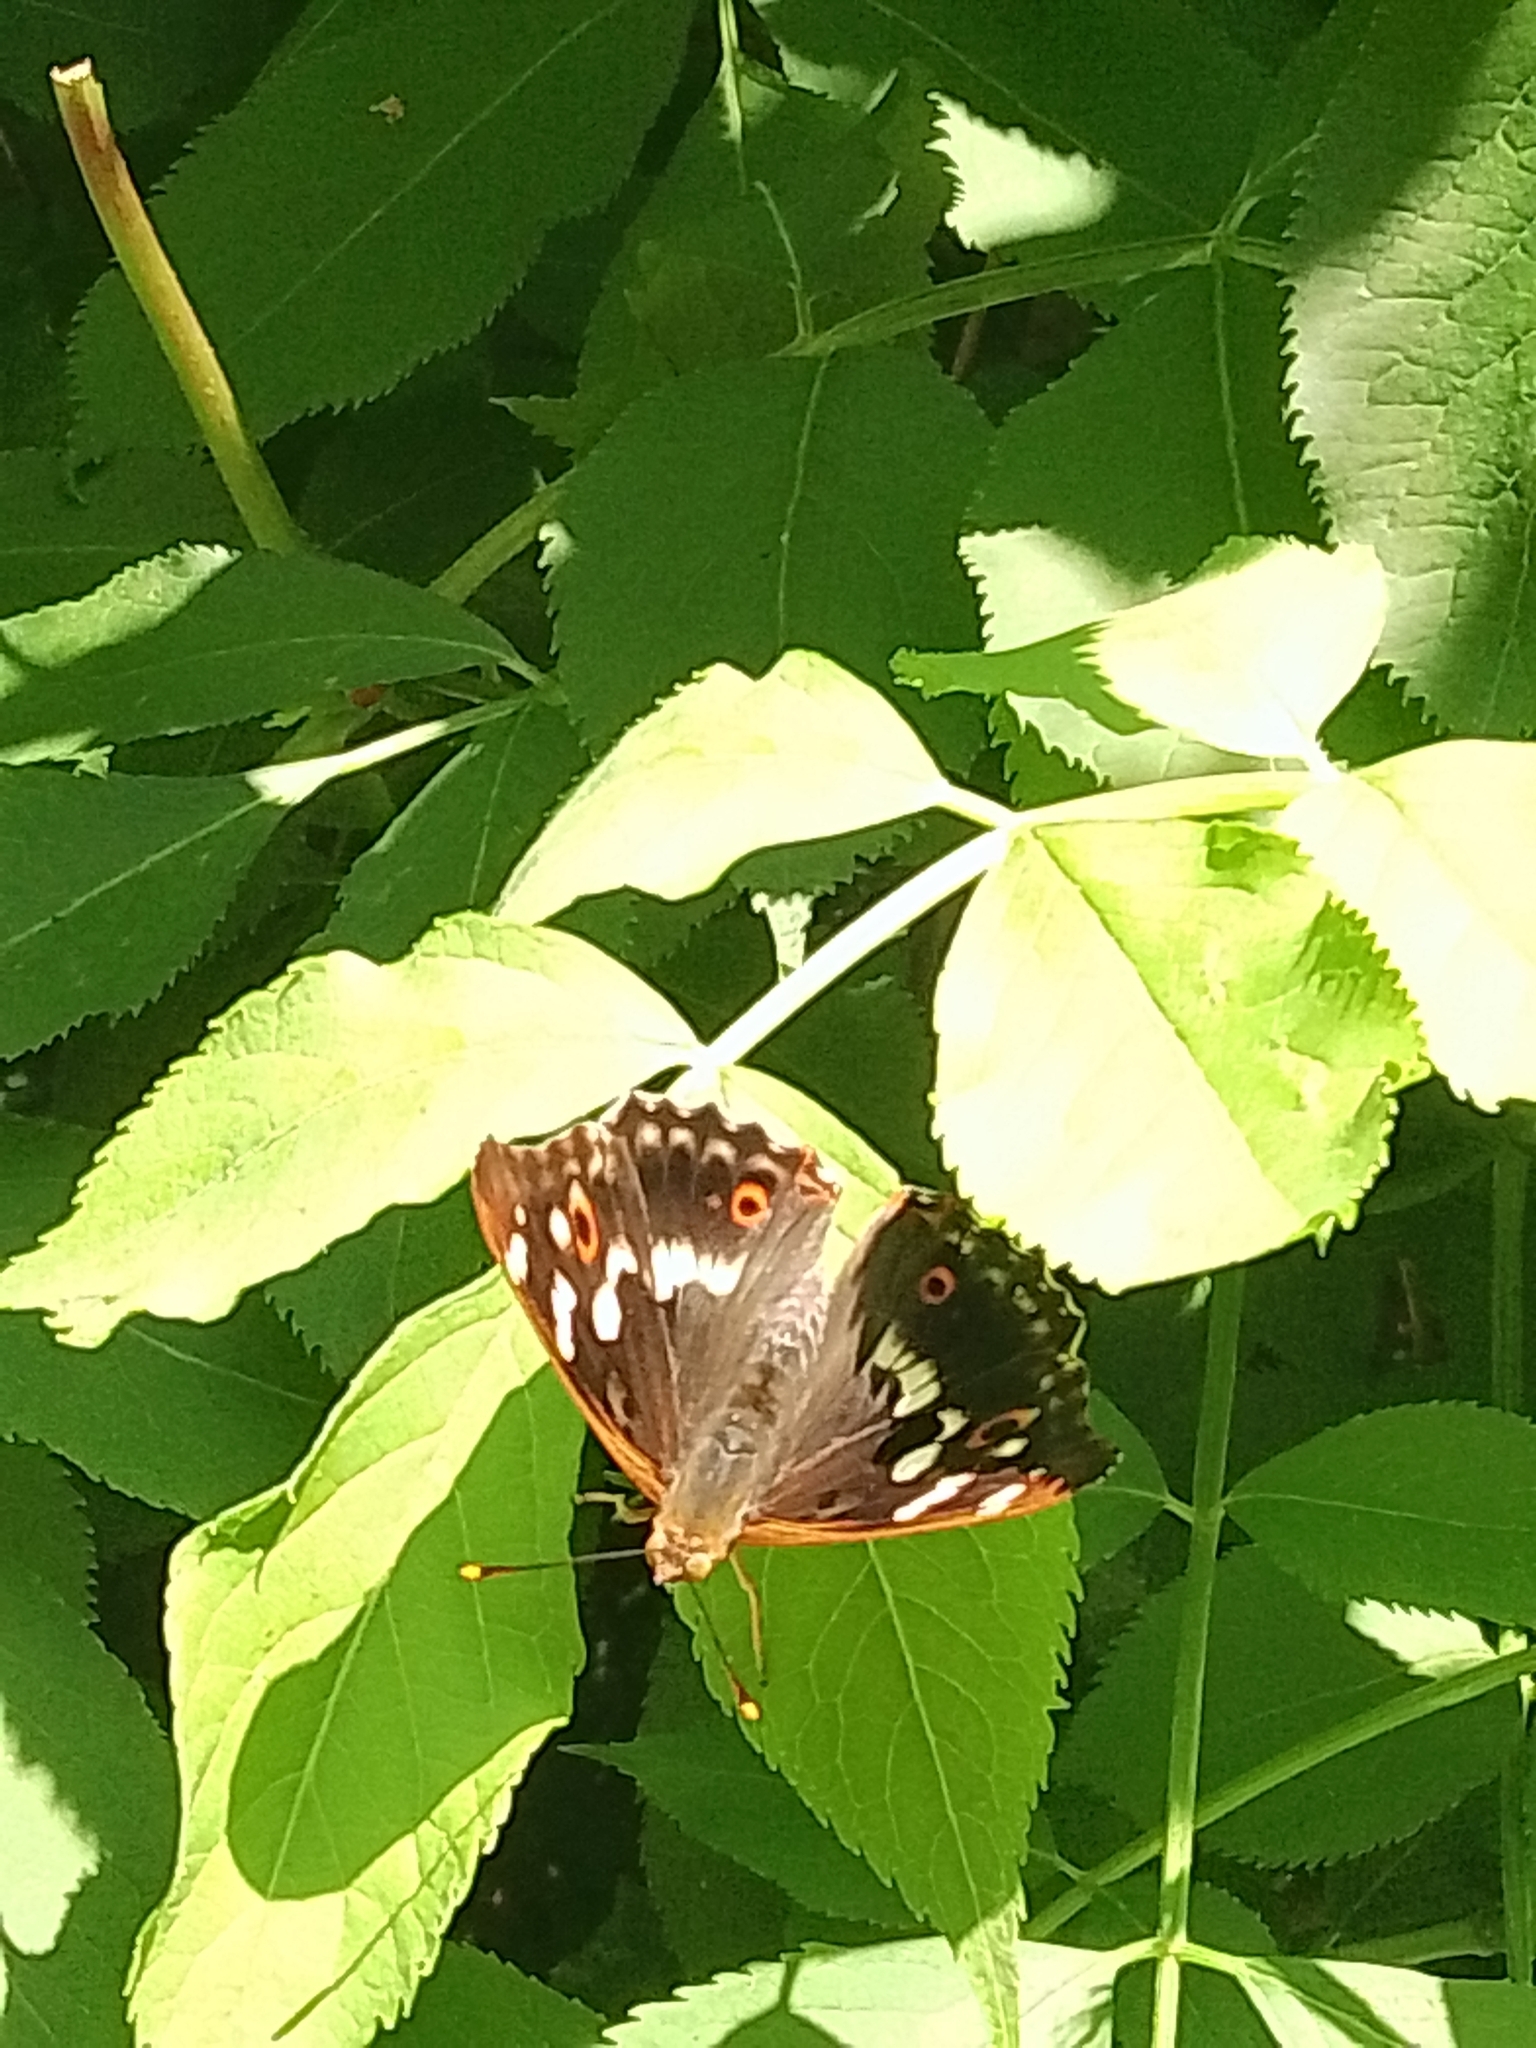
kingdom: Animalia
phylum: Arthropoda
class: Insecta
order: Lepidoptera
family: Nymphalidae
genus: Apatura
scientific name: Apatura ilia
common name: Lesser purple emperor
